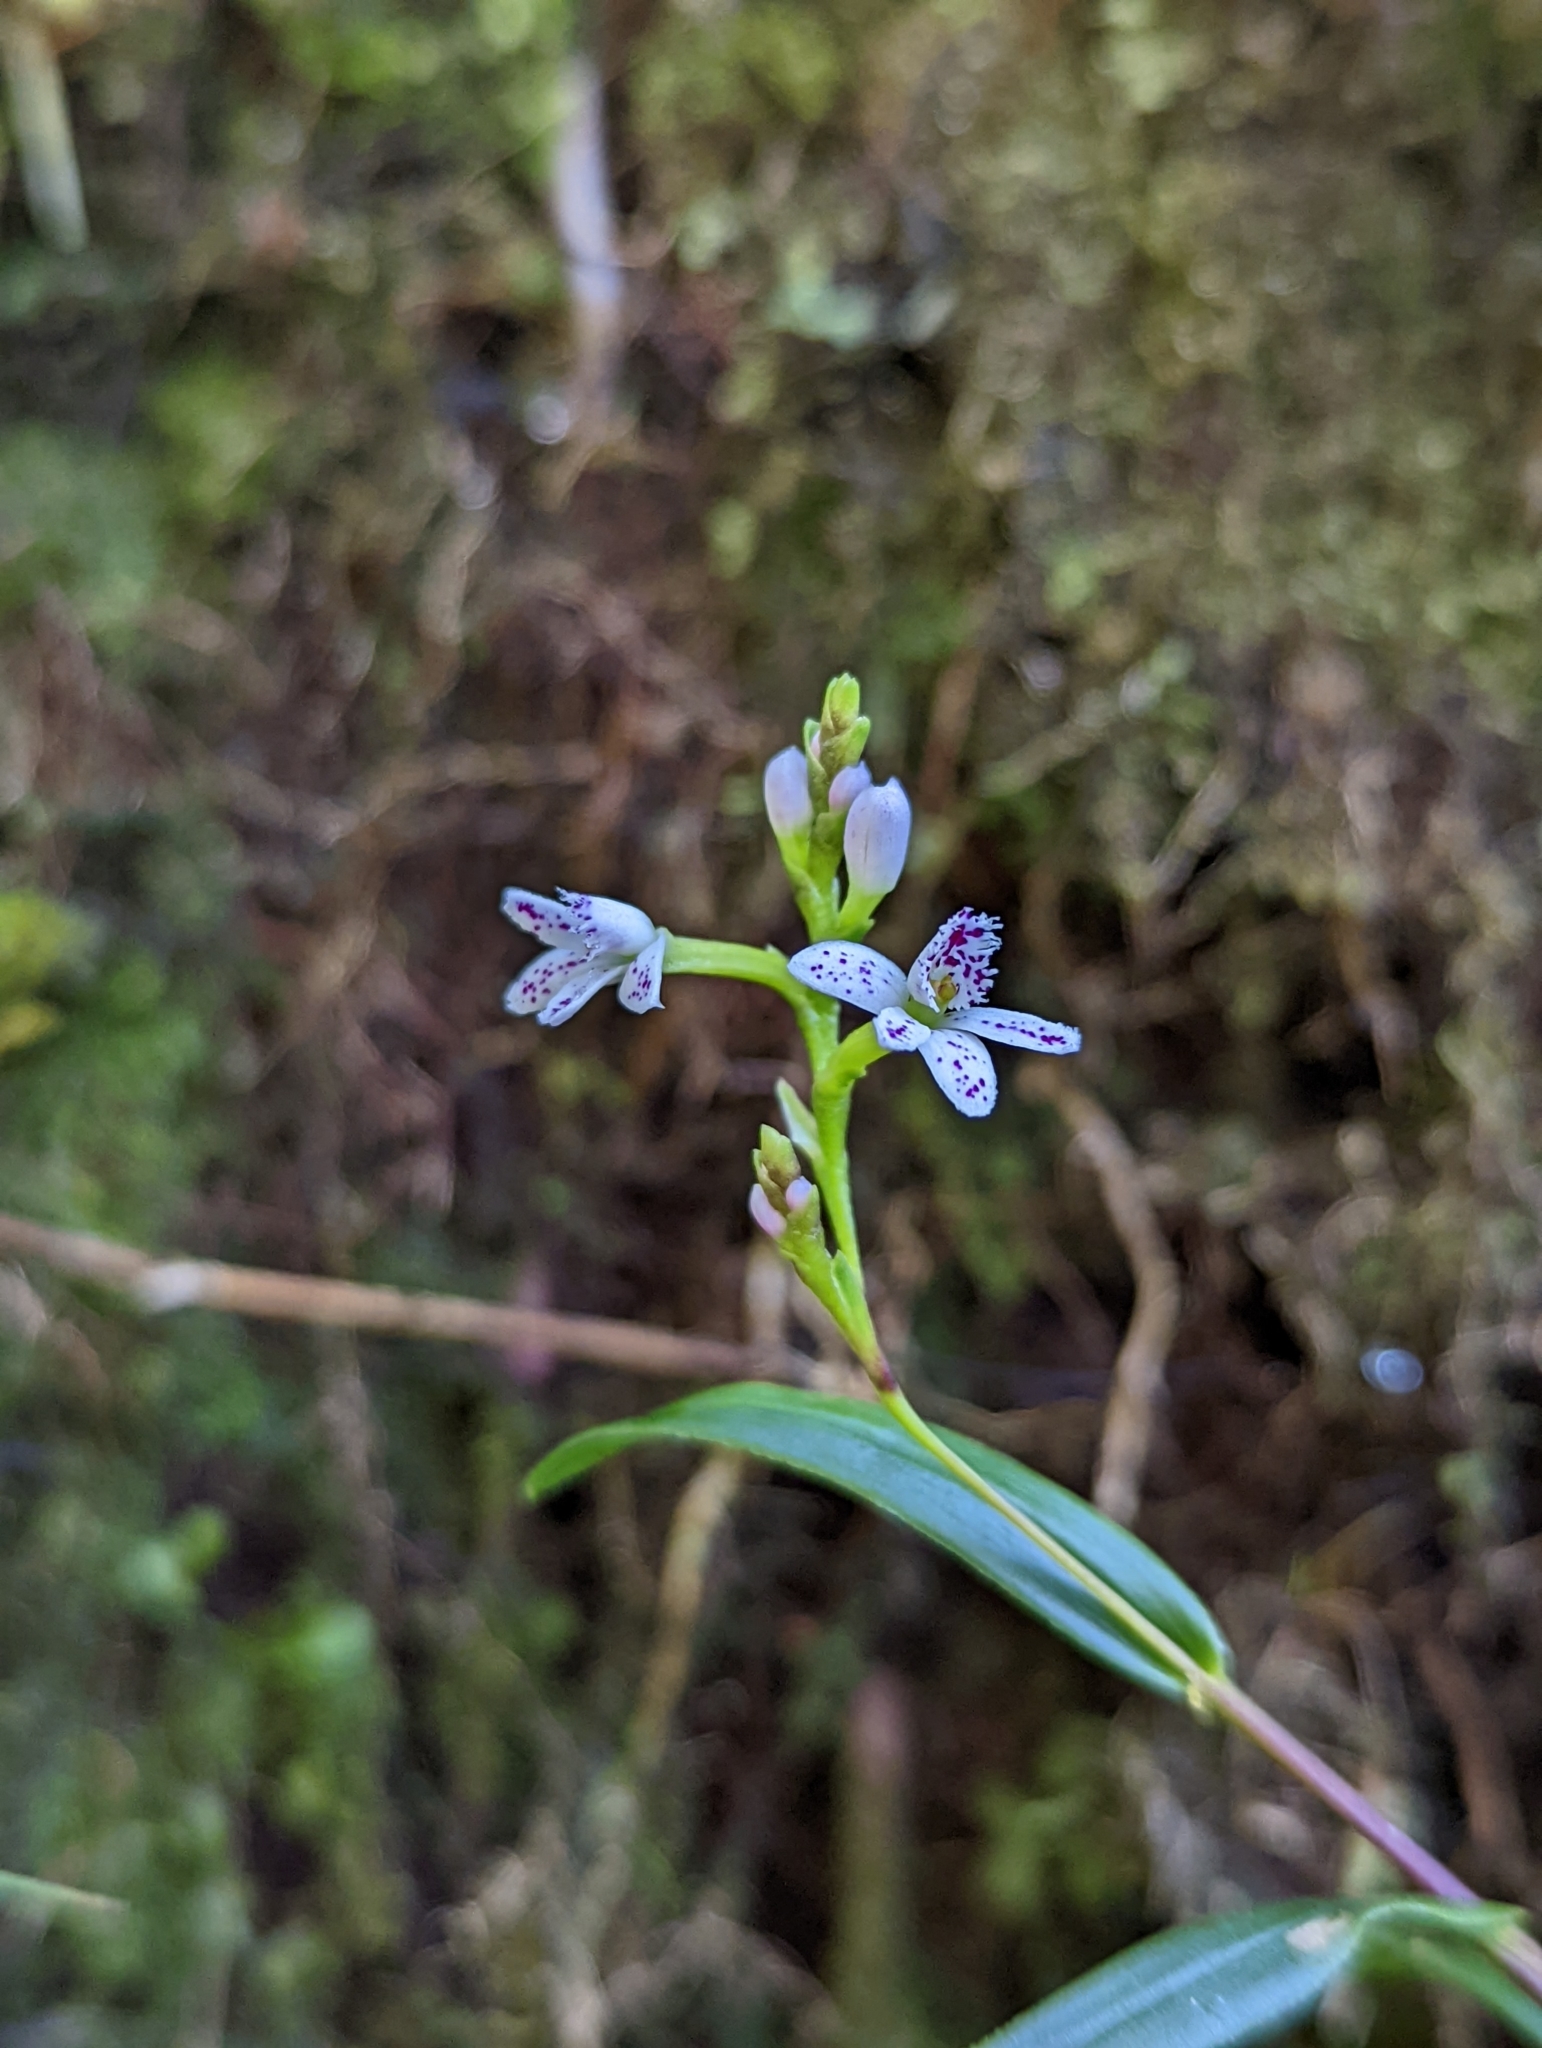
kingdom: Plantae
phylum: Tracheophyta
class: Liliopsida
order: Asparagales
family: Orchidaceae
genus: Epidendrum
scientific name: Epidendrum fimbriatum
